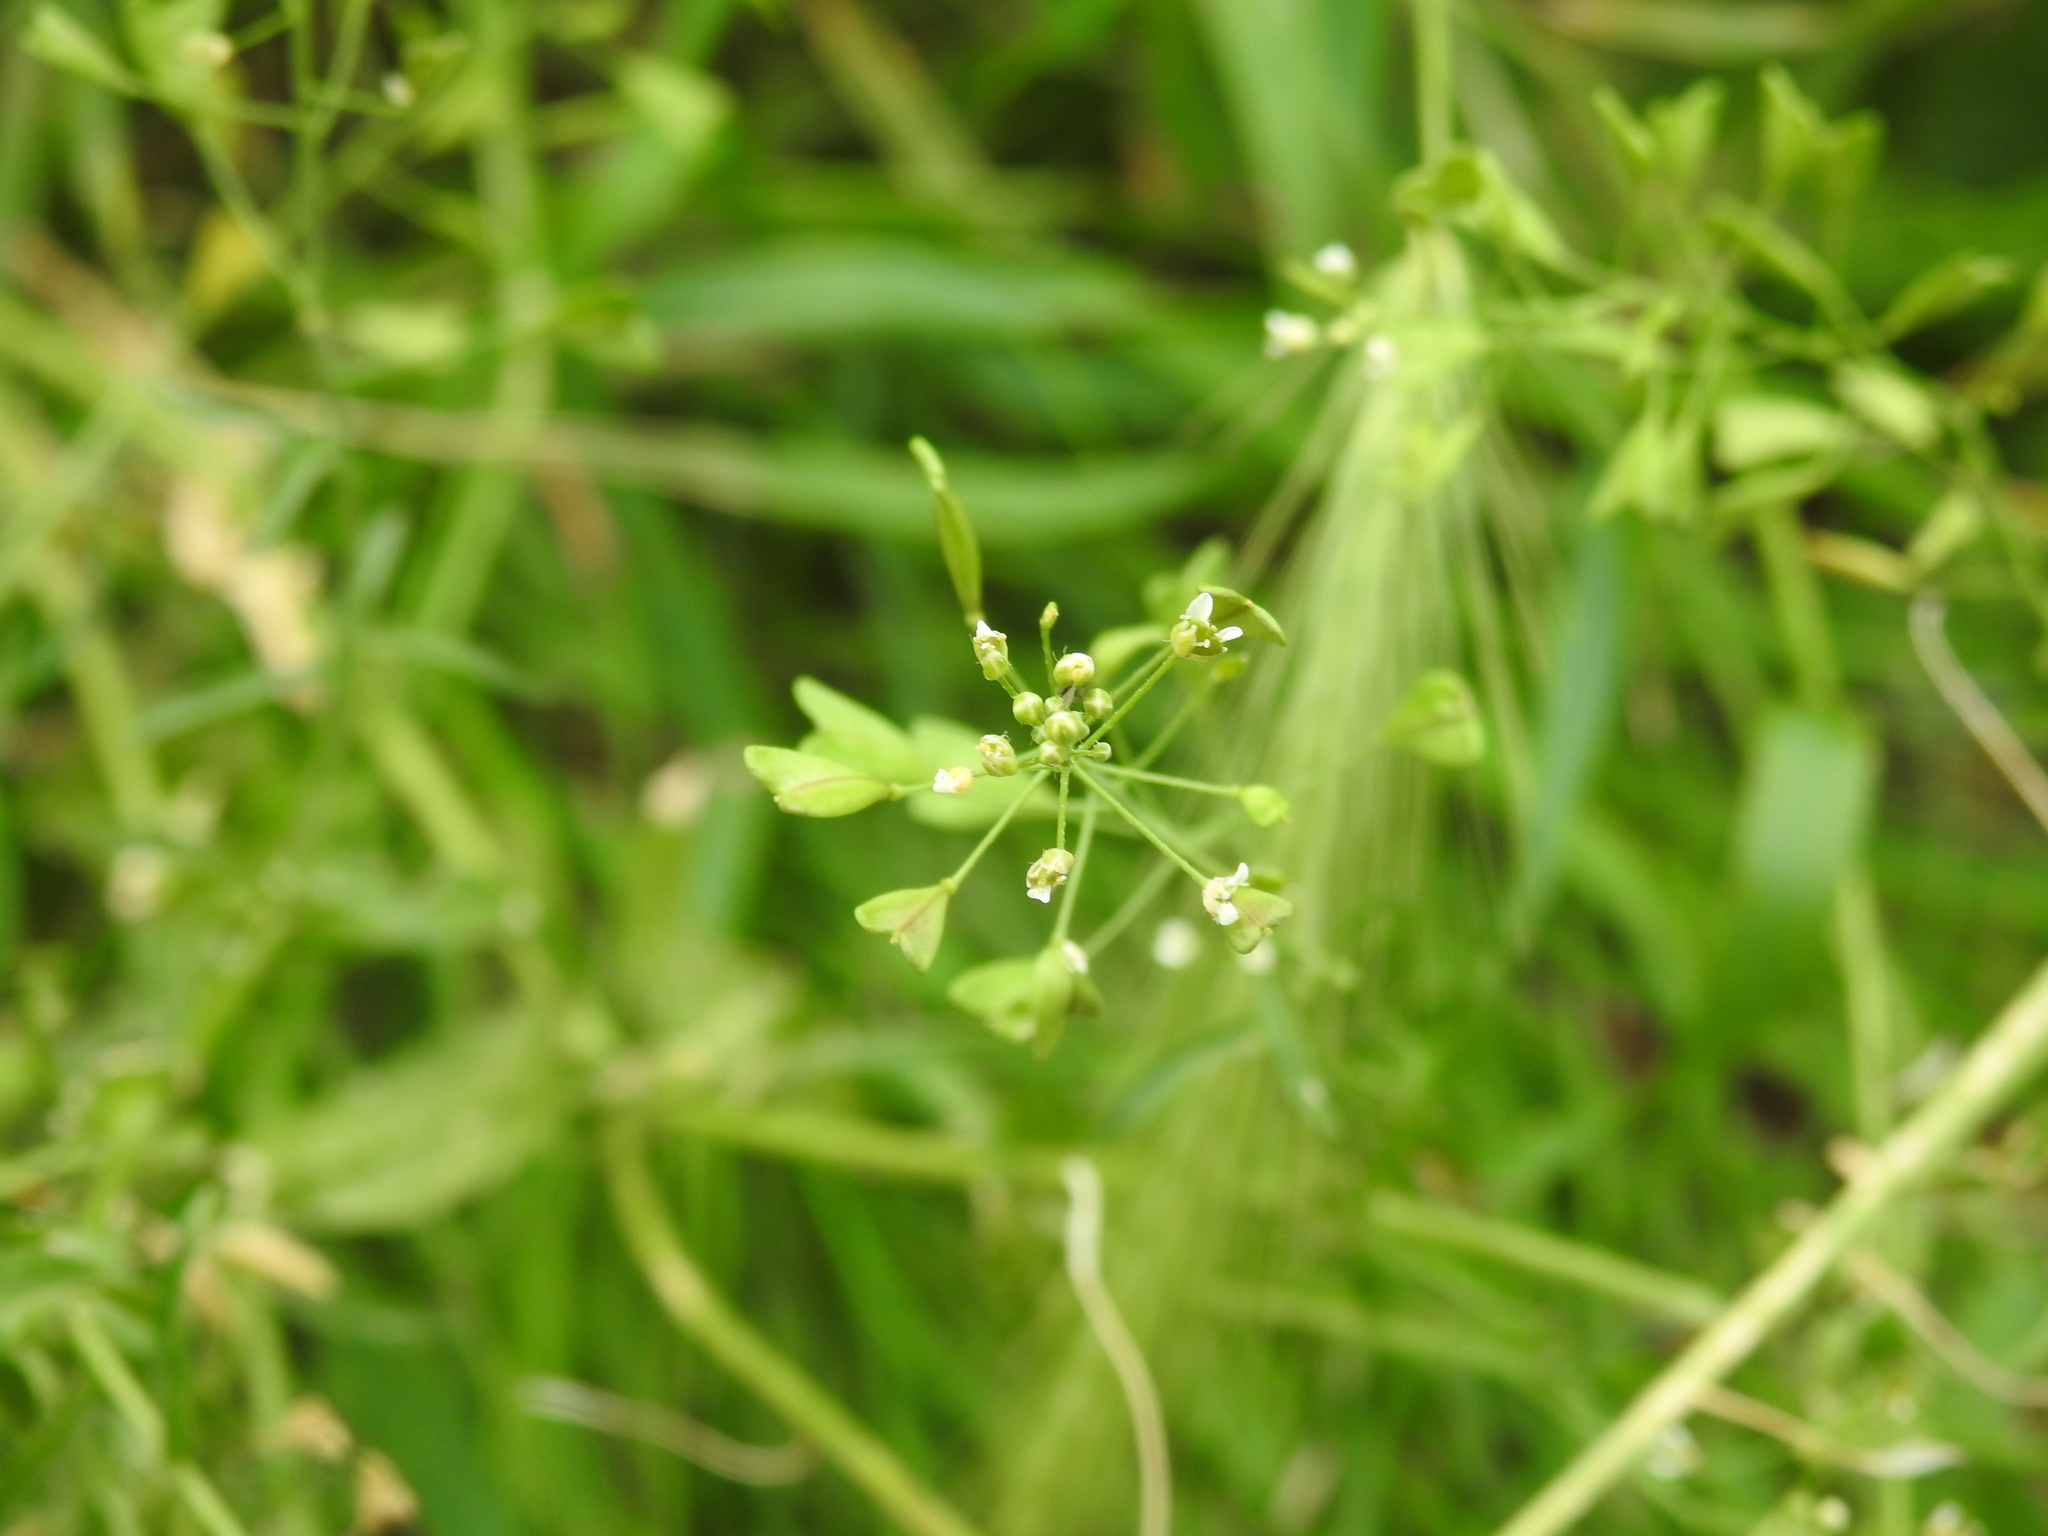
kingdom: Plantae
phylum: Tracheophyta
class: Magnoliopsida
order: Brassicales
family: Brassicaceae
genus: Capsella
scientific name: Capsella bursa-pastoris
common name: Shepherd's purse
